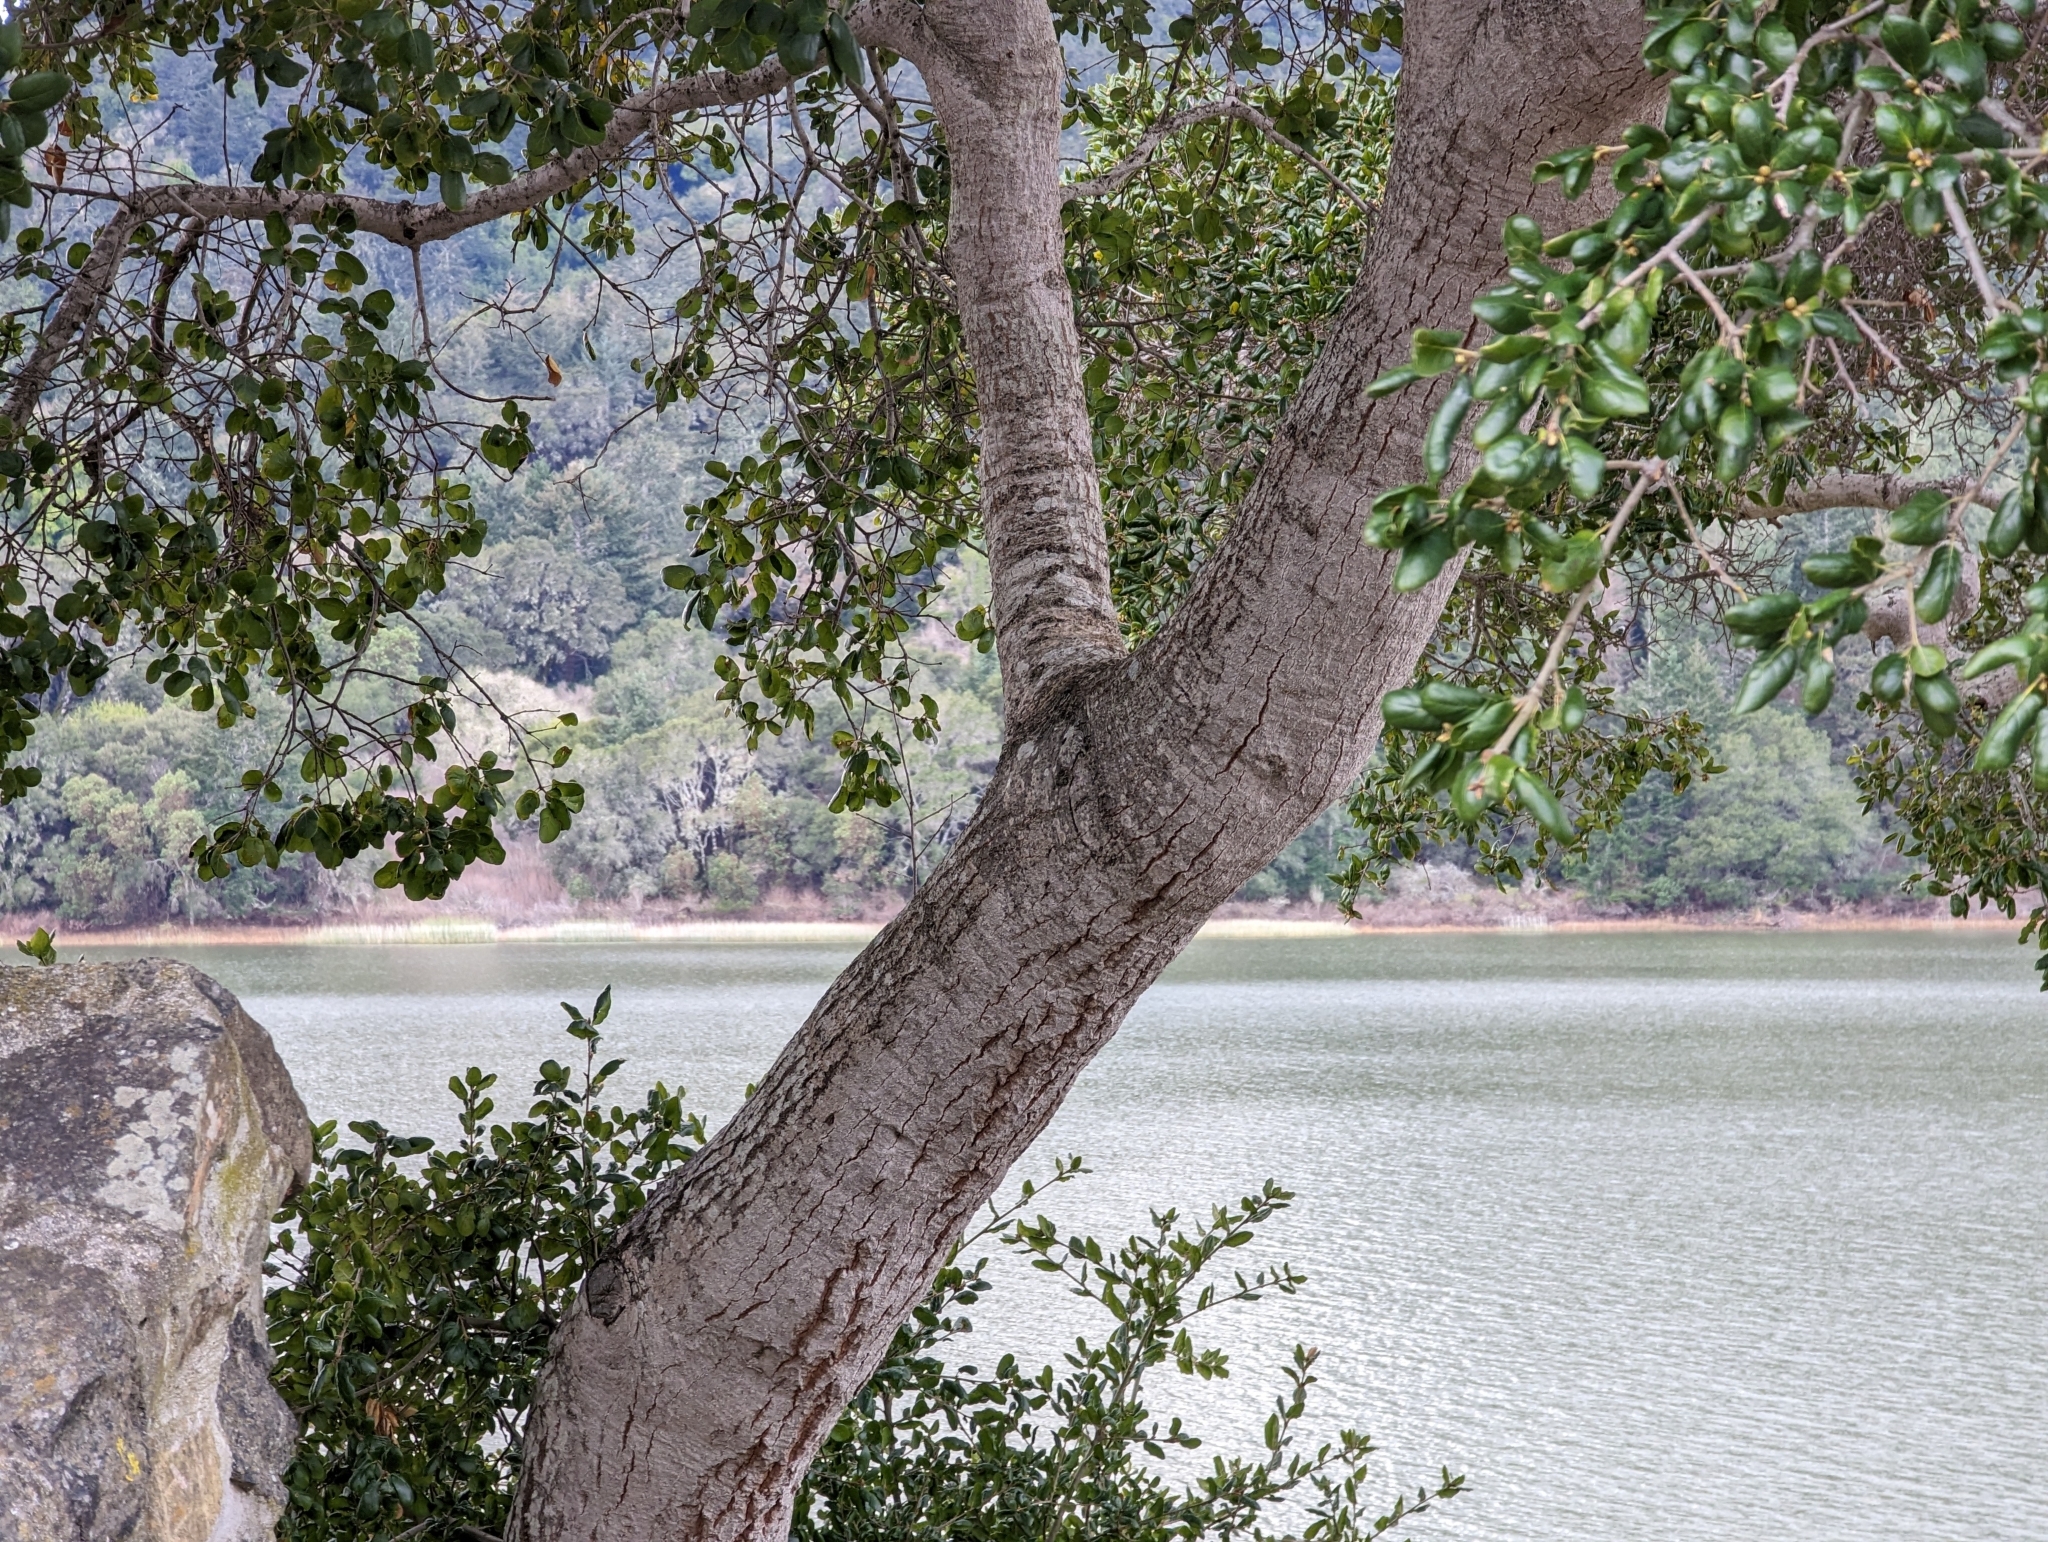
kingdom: Plantae
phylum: Tracheophyta
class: Magnoliopsida
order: Fagales
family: Fagaceae
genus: Quercus
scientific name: Quercus agrifolia
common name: California live oak
